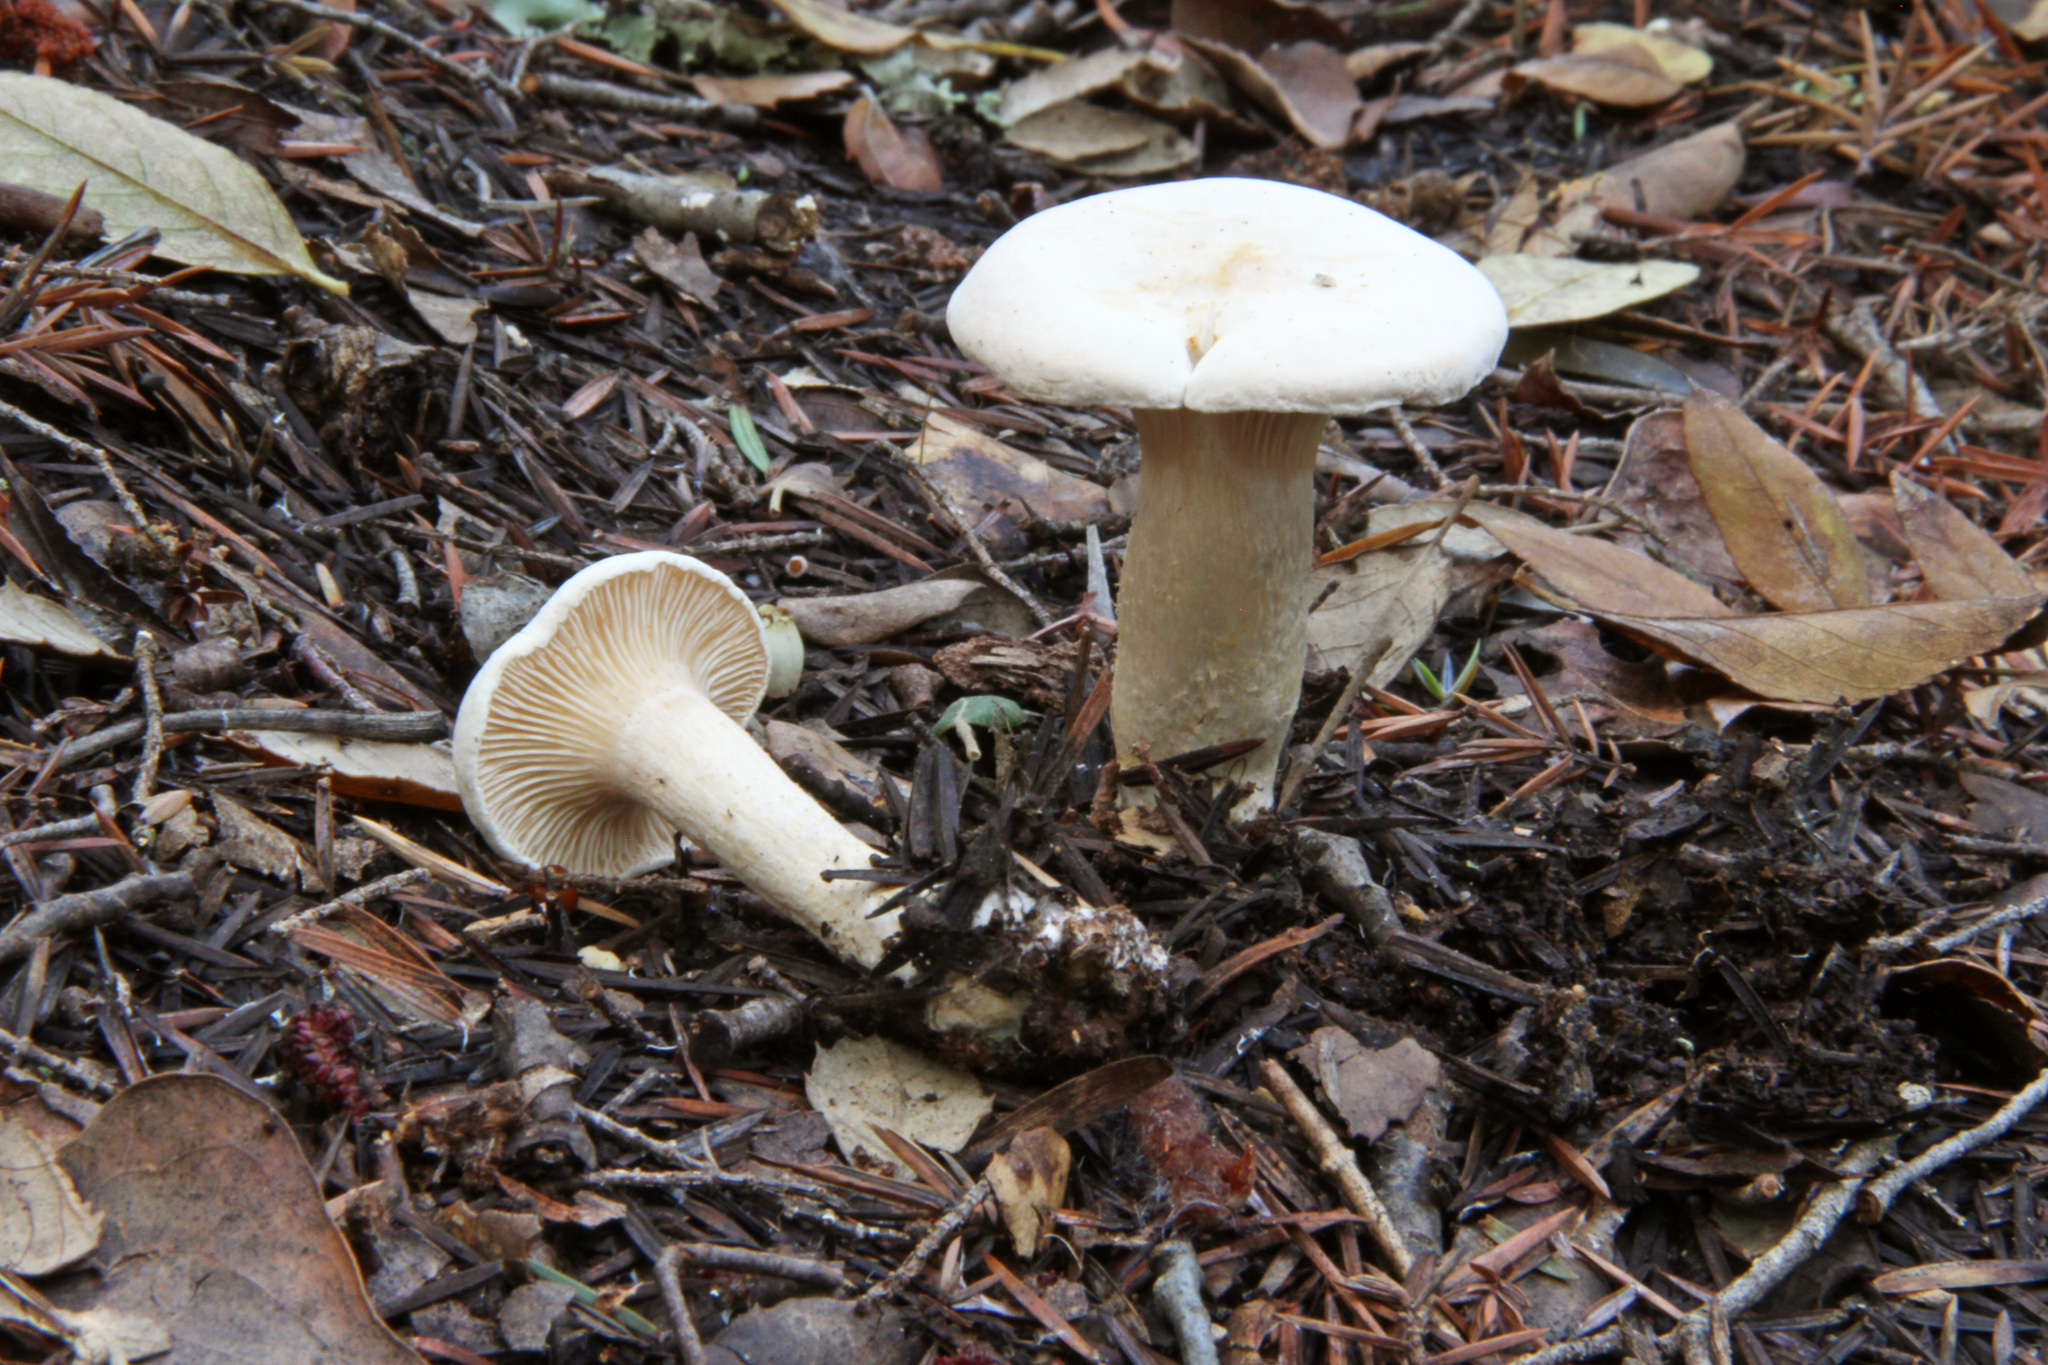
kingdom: Fungi
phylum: Basidiomycota
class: Agaricomycetes
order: Agaricales
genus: Hygrophorocybe
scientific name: Hygrophorocybe nivea
